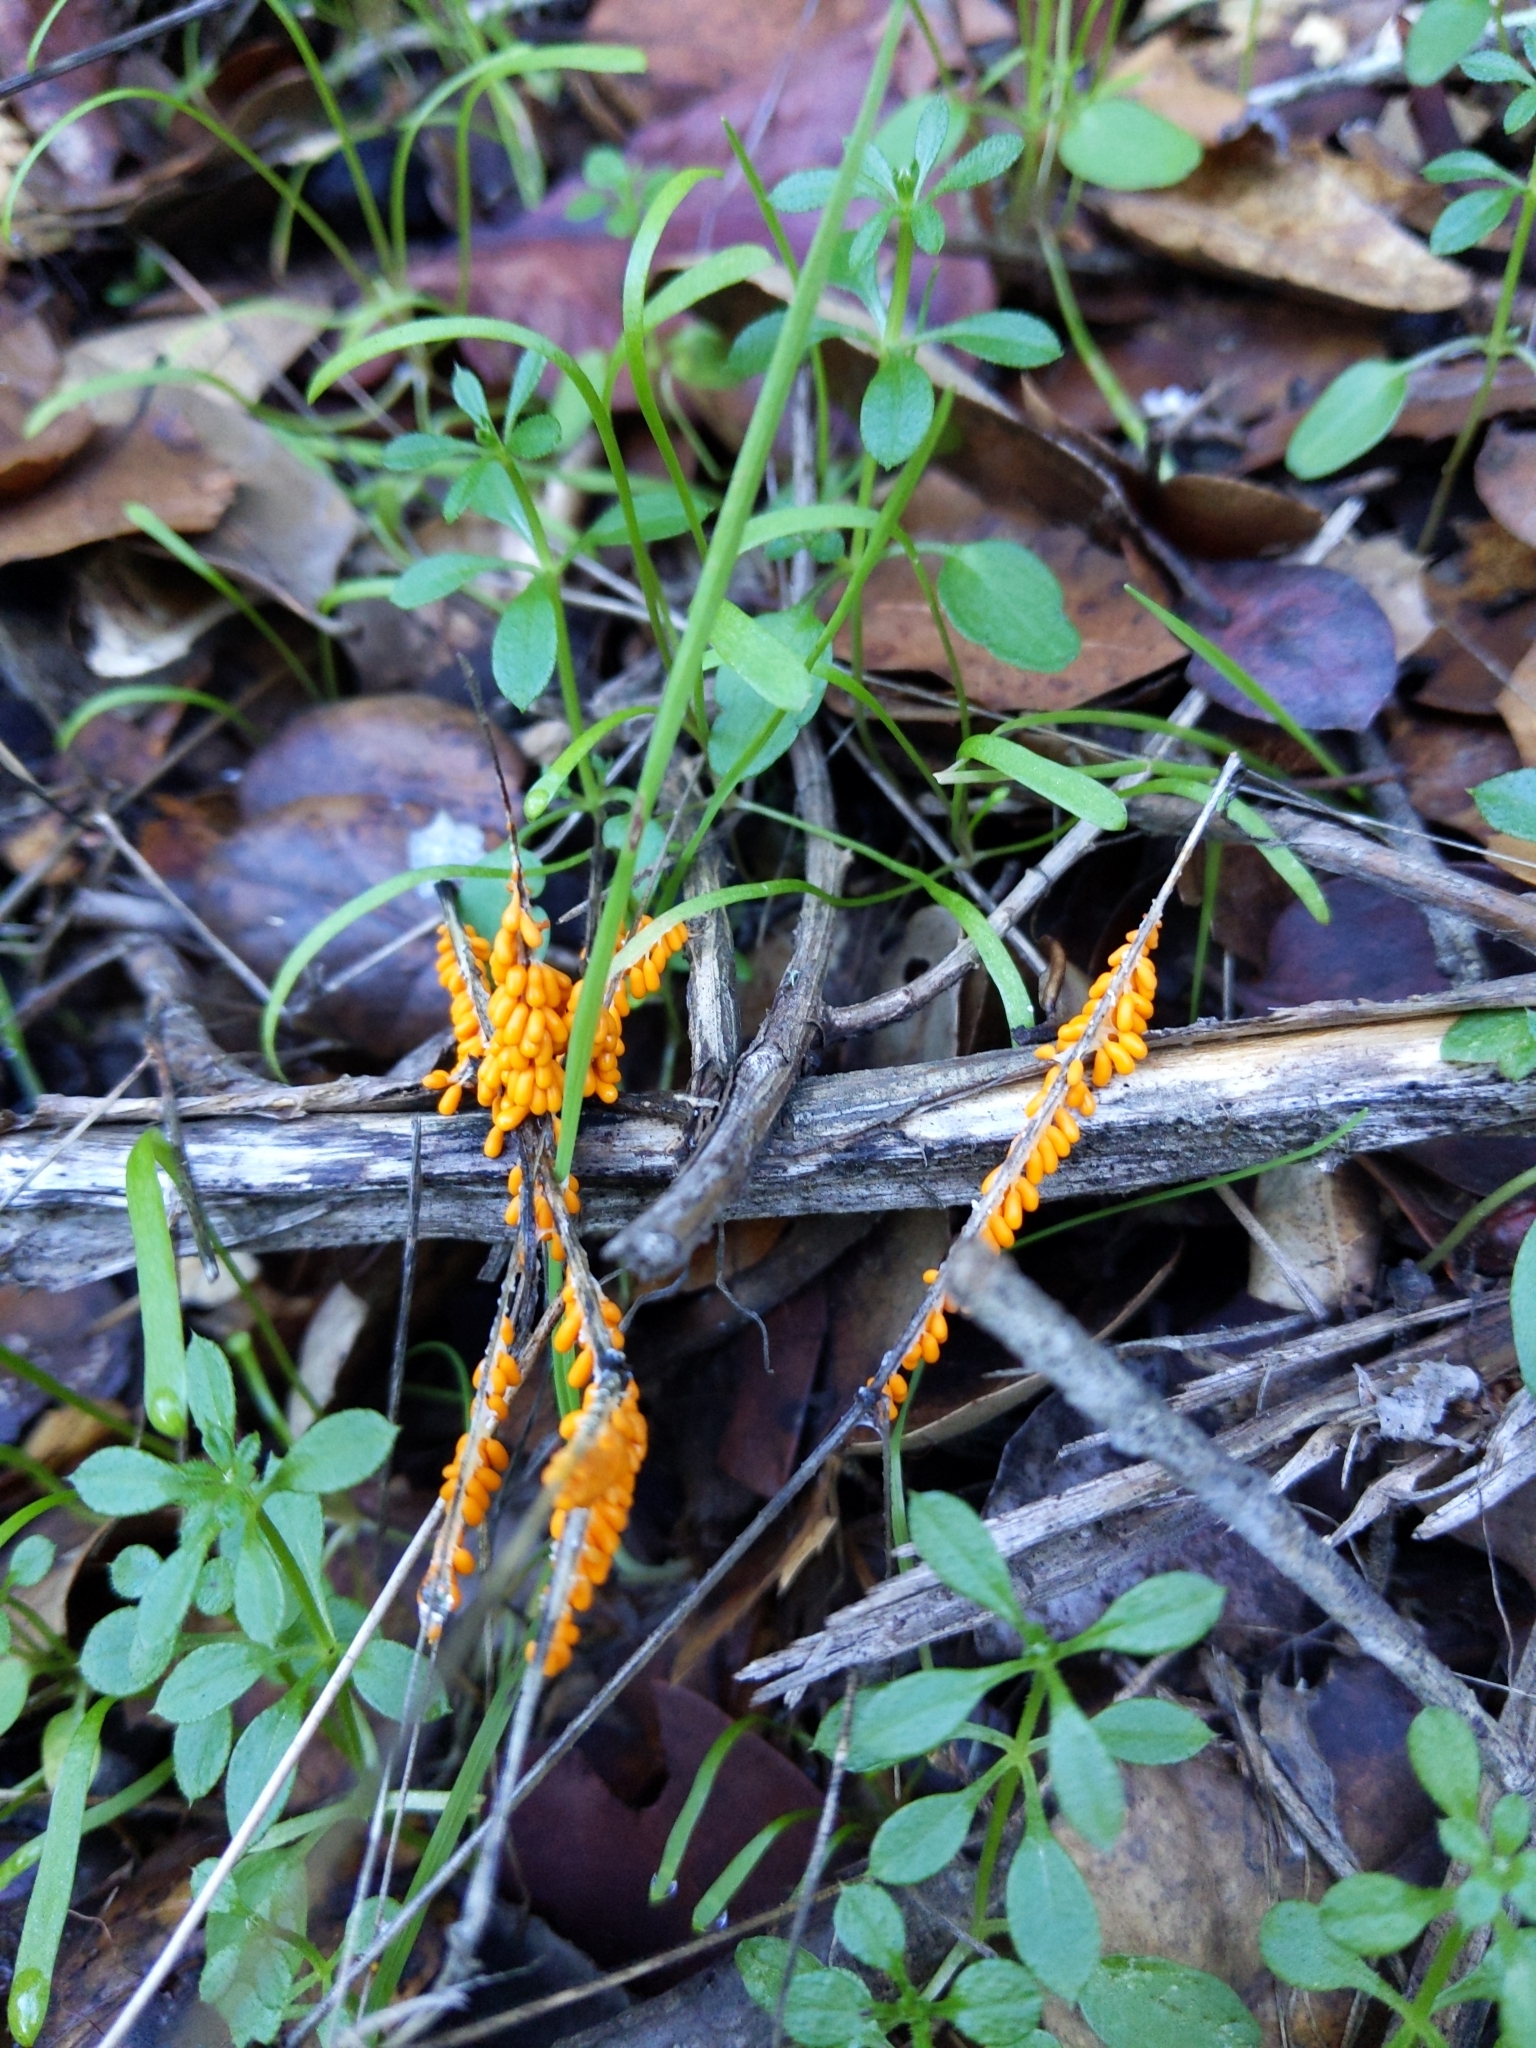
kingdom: Protozoa
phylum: Mycetozoa
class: Myxomycetes
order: Physarales
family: Physaraceae
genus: Leocarpus
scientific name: Leocarpus fragilis
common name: Insect-egg slime
